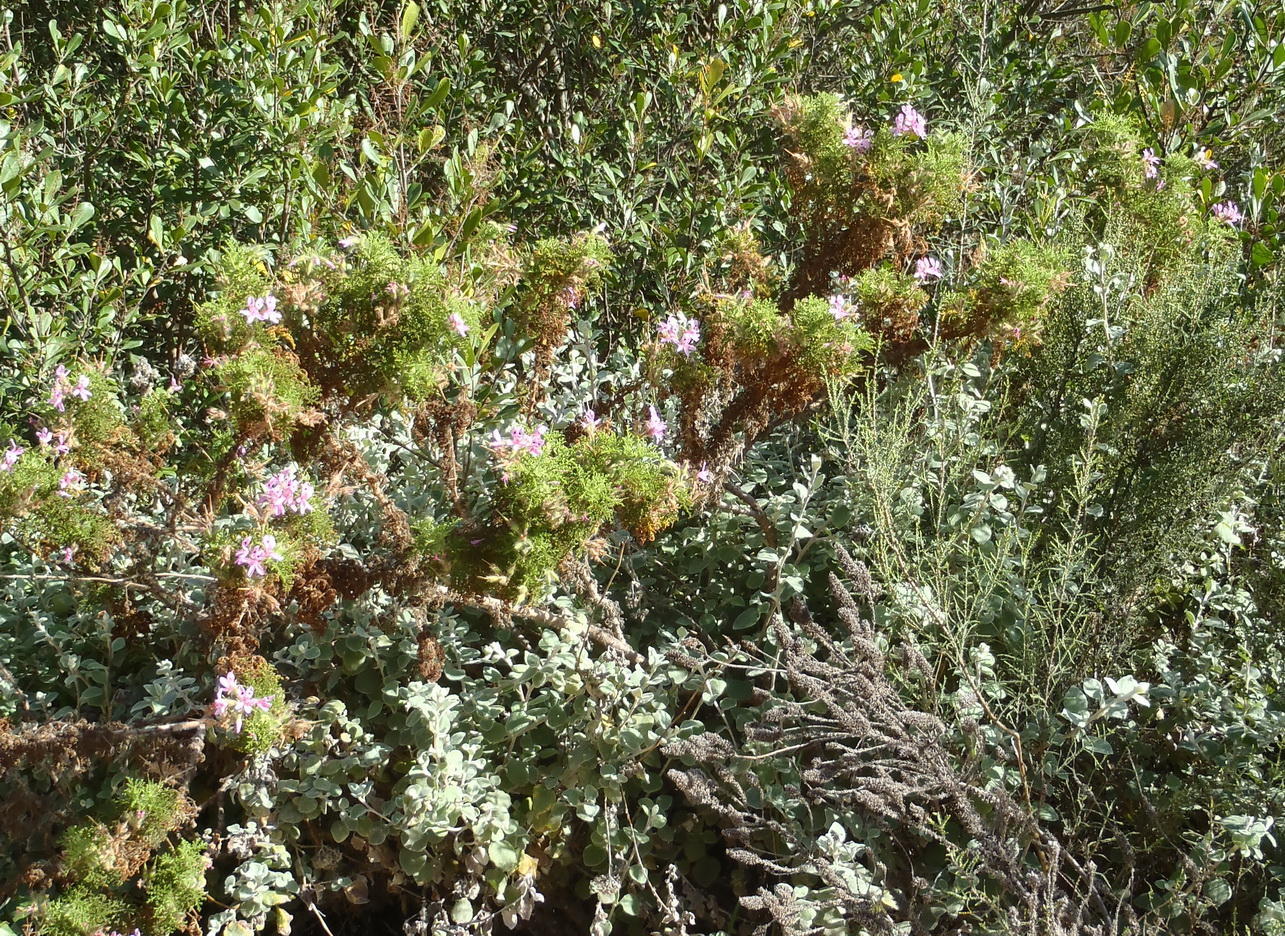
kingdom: Plantae
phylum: Tracheophyta
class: Magnoliopsida
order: Geraniales
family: Geraniaceae
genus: Pelargonium
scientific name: Pelargonium denticulatum
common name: Pine geranium
